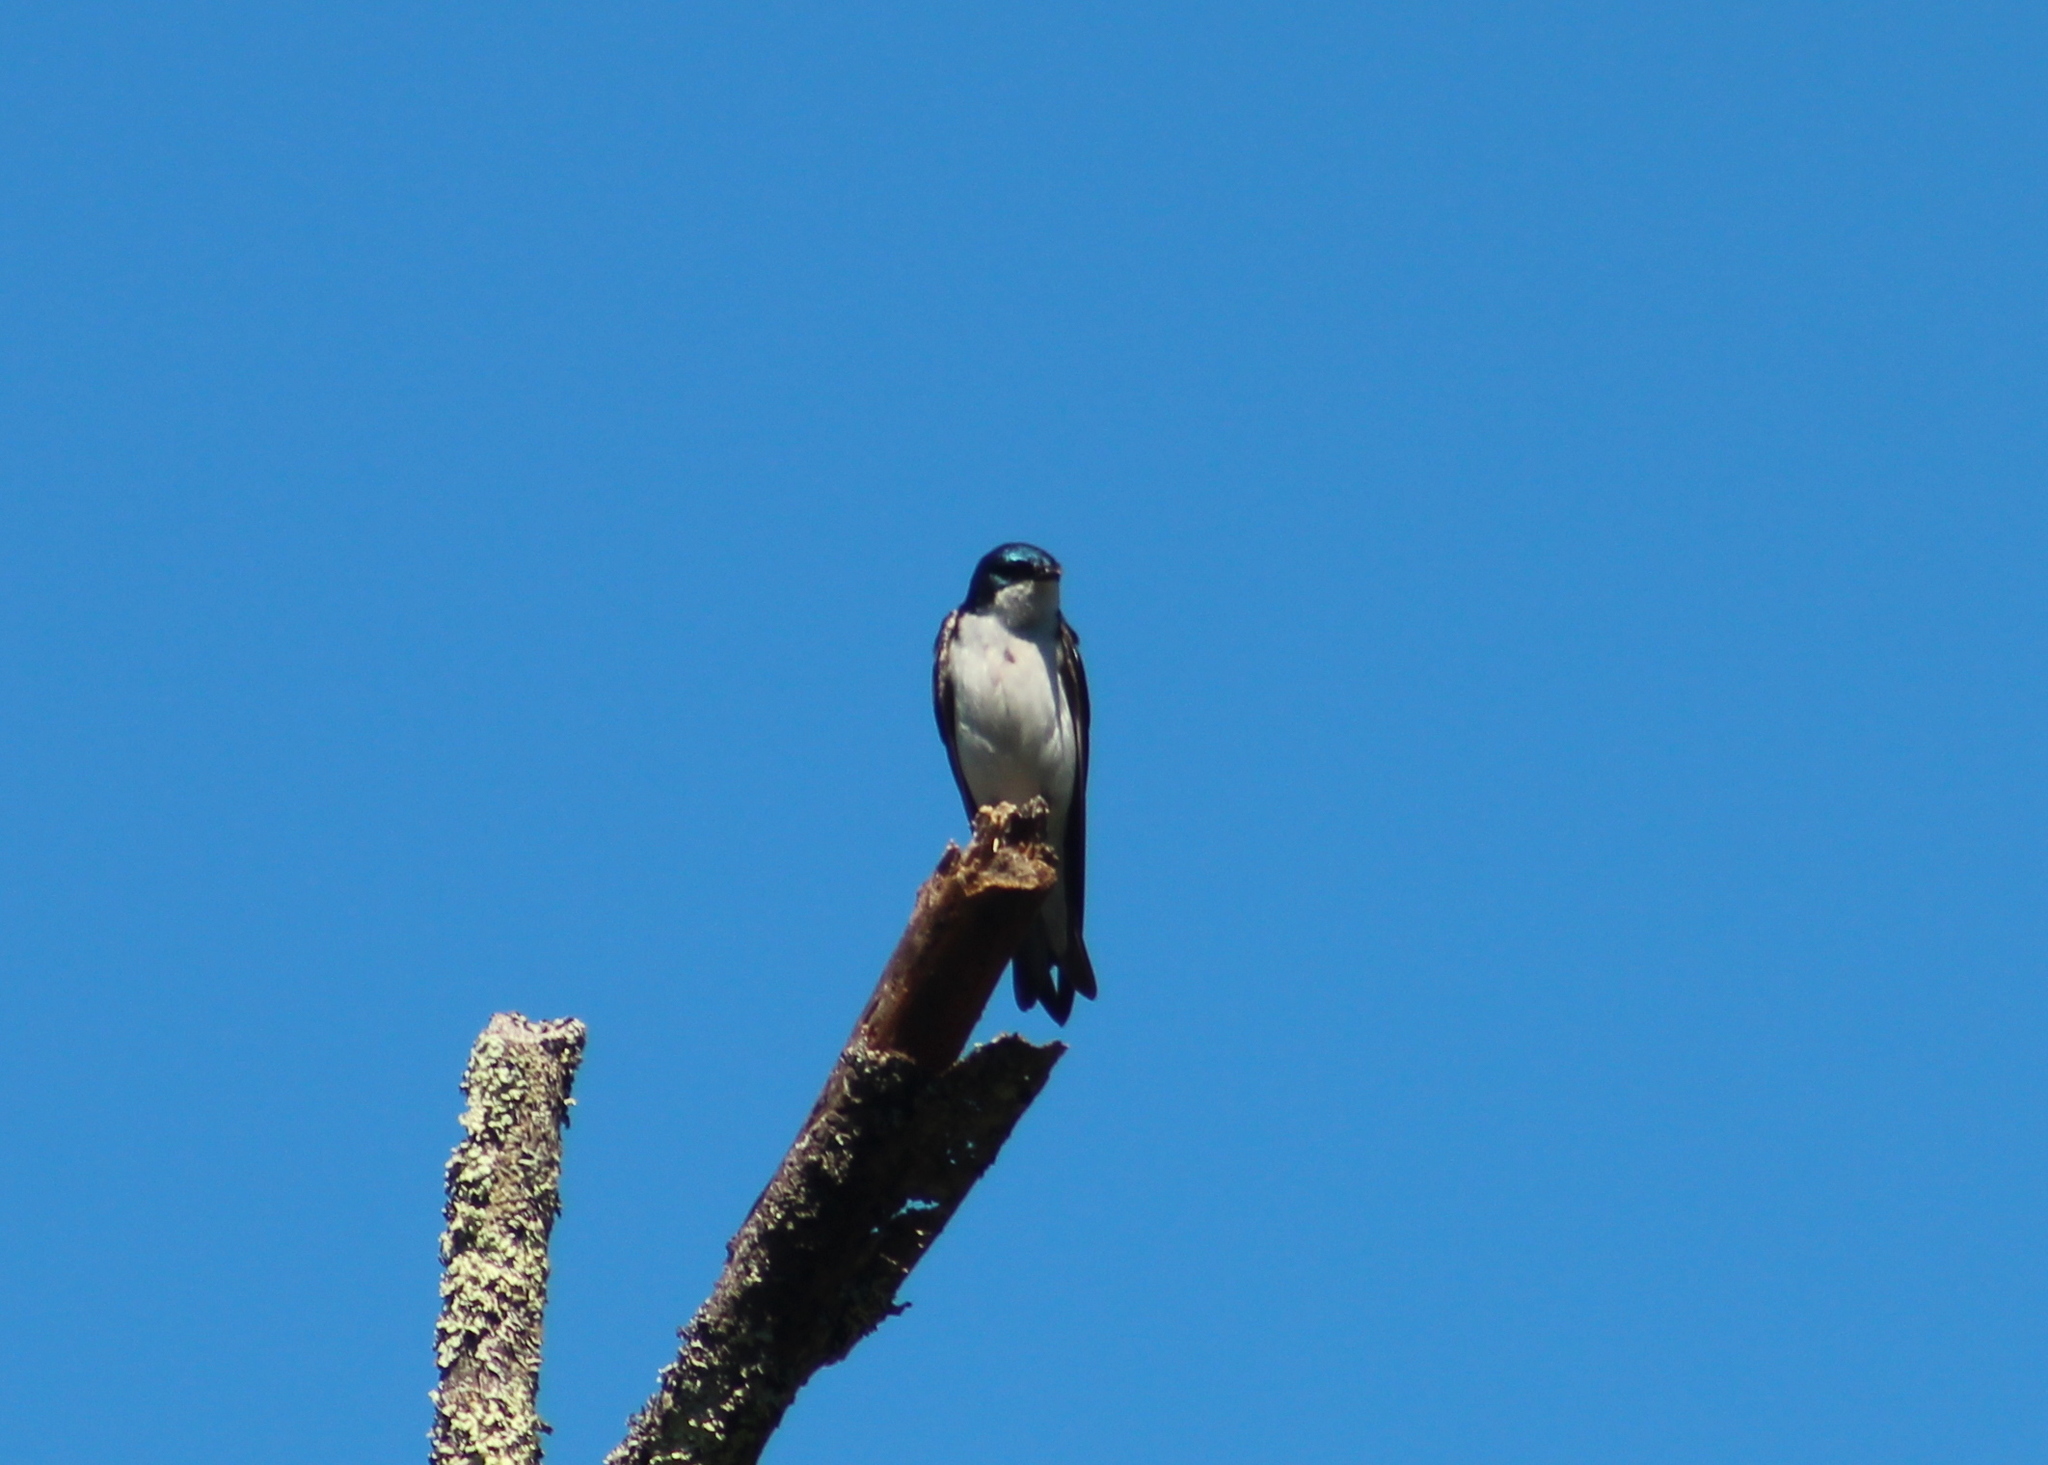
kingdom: Animalia
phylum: Chordata
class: Aves
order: Passeriformes
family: Hirundinidae
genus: Tachycineta
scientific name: Tachycineta bicolor
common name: Tree swallow
